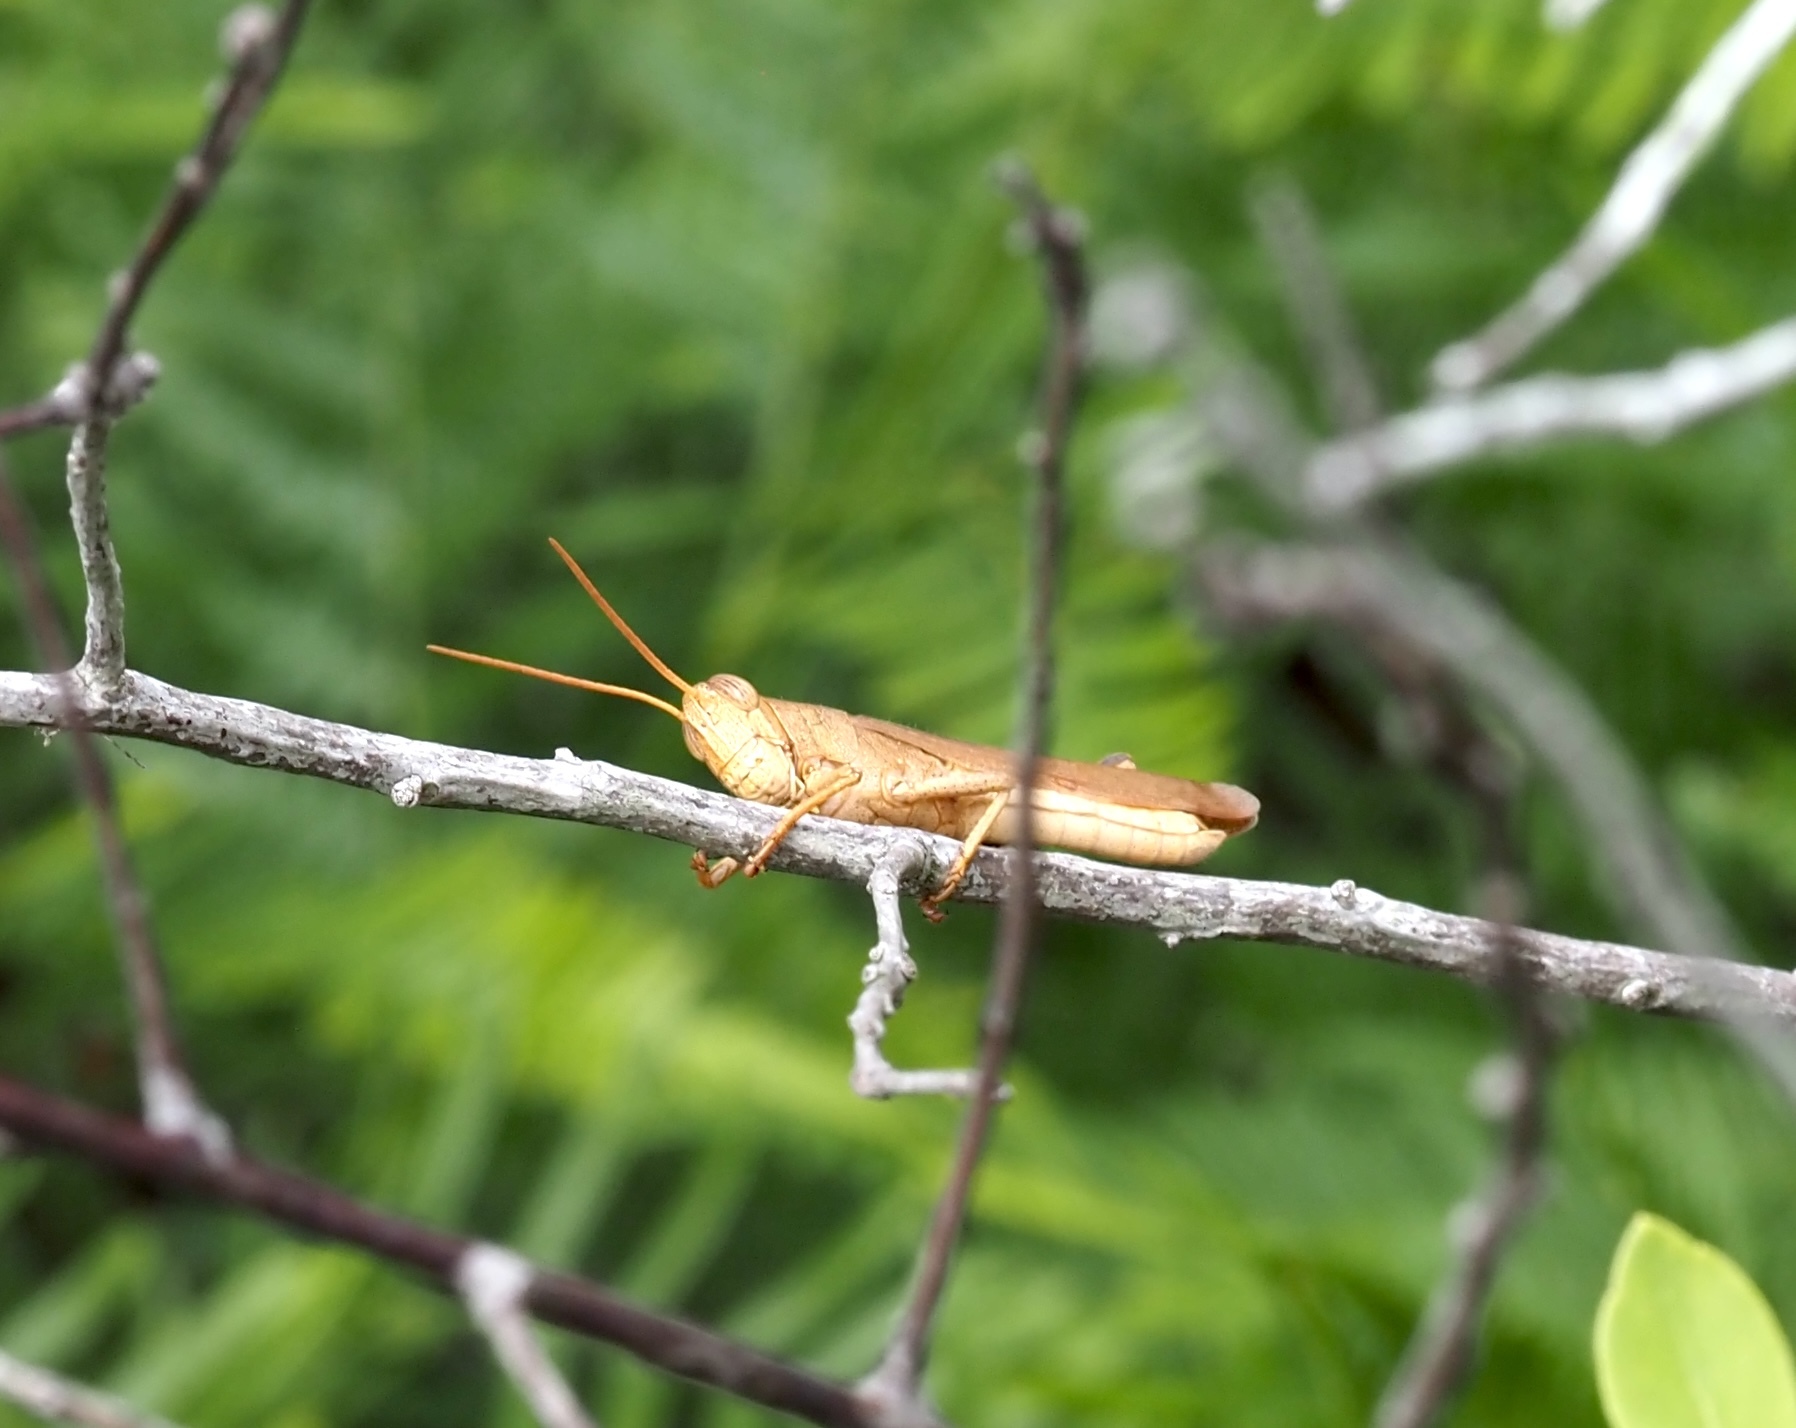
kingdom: Animalia
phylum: Arthropoda
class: Insecta
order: Orthoptera
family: Acrididae
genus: Schistocerca
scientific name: Schistocerca damnifica
